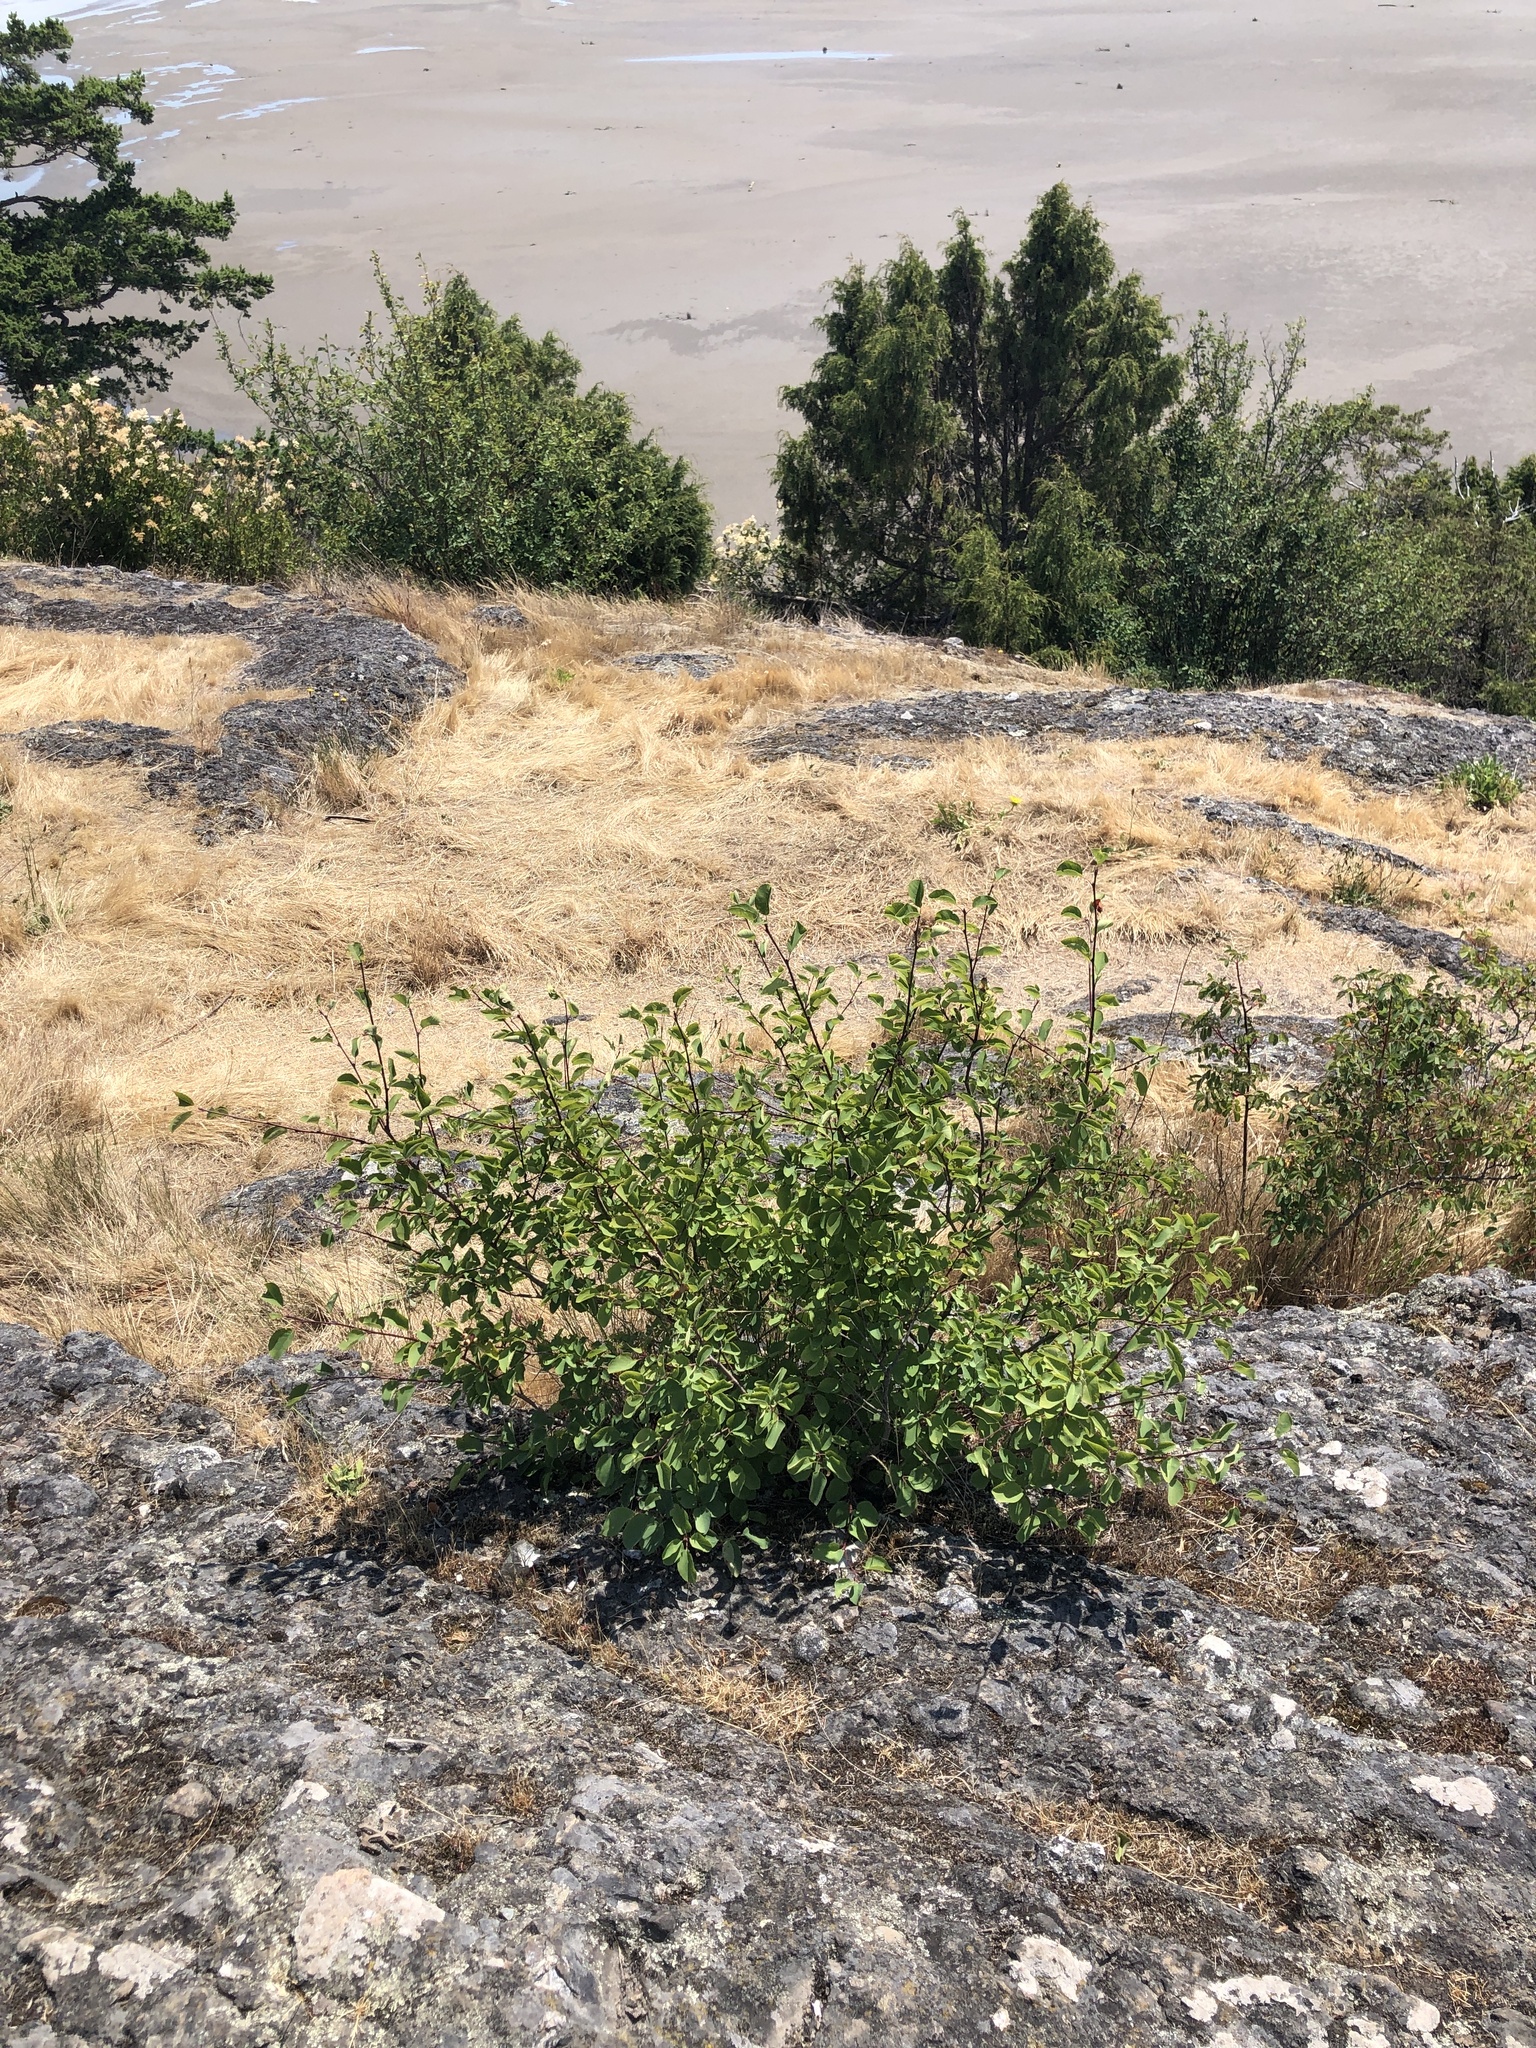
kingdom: Plantae
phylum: Tracheophyta
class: Magnoliopsida
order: Rosales
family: Rosaceae
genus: Amelanchier
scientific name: Amelanchier alnifolia
